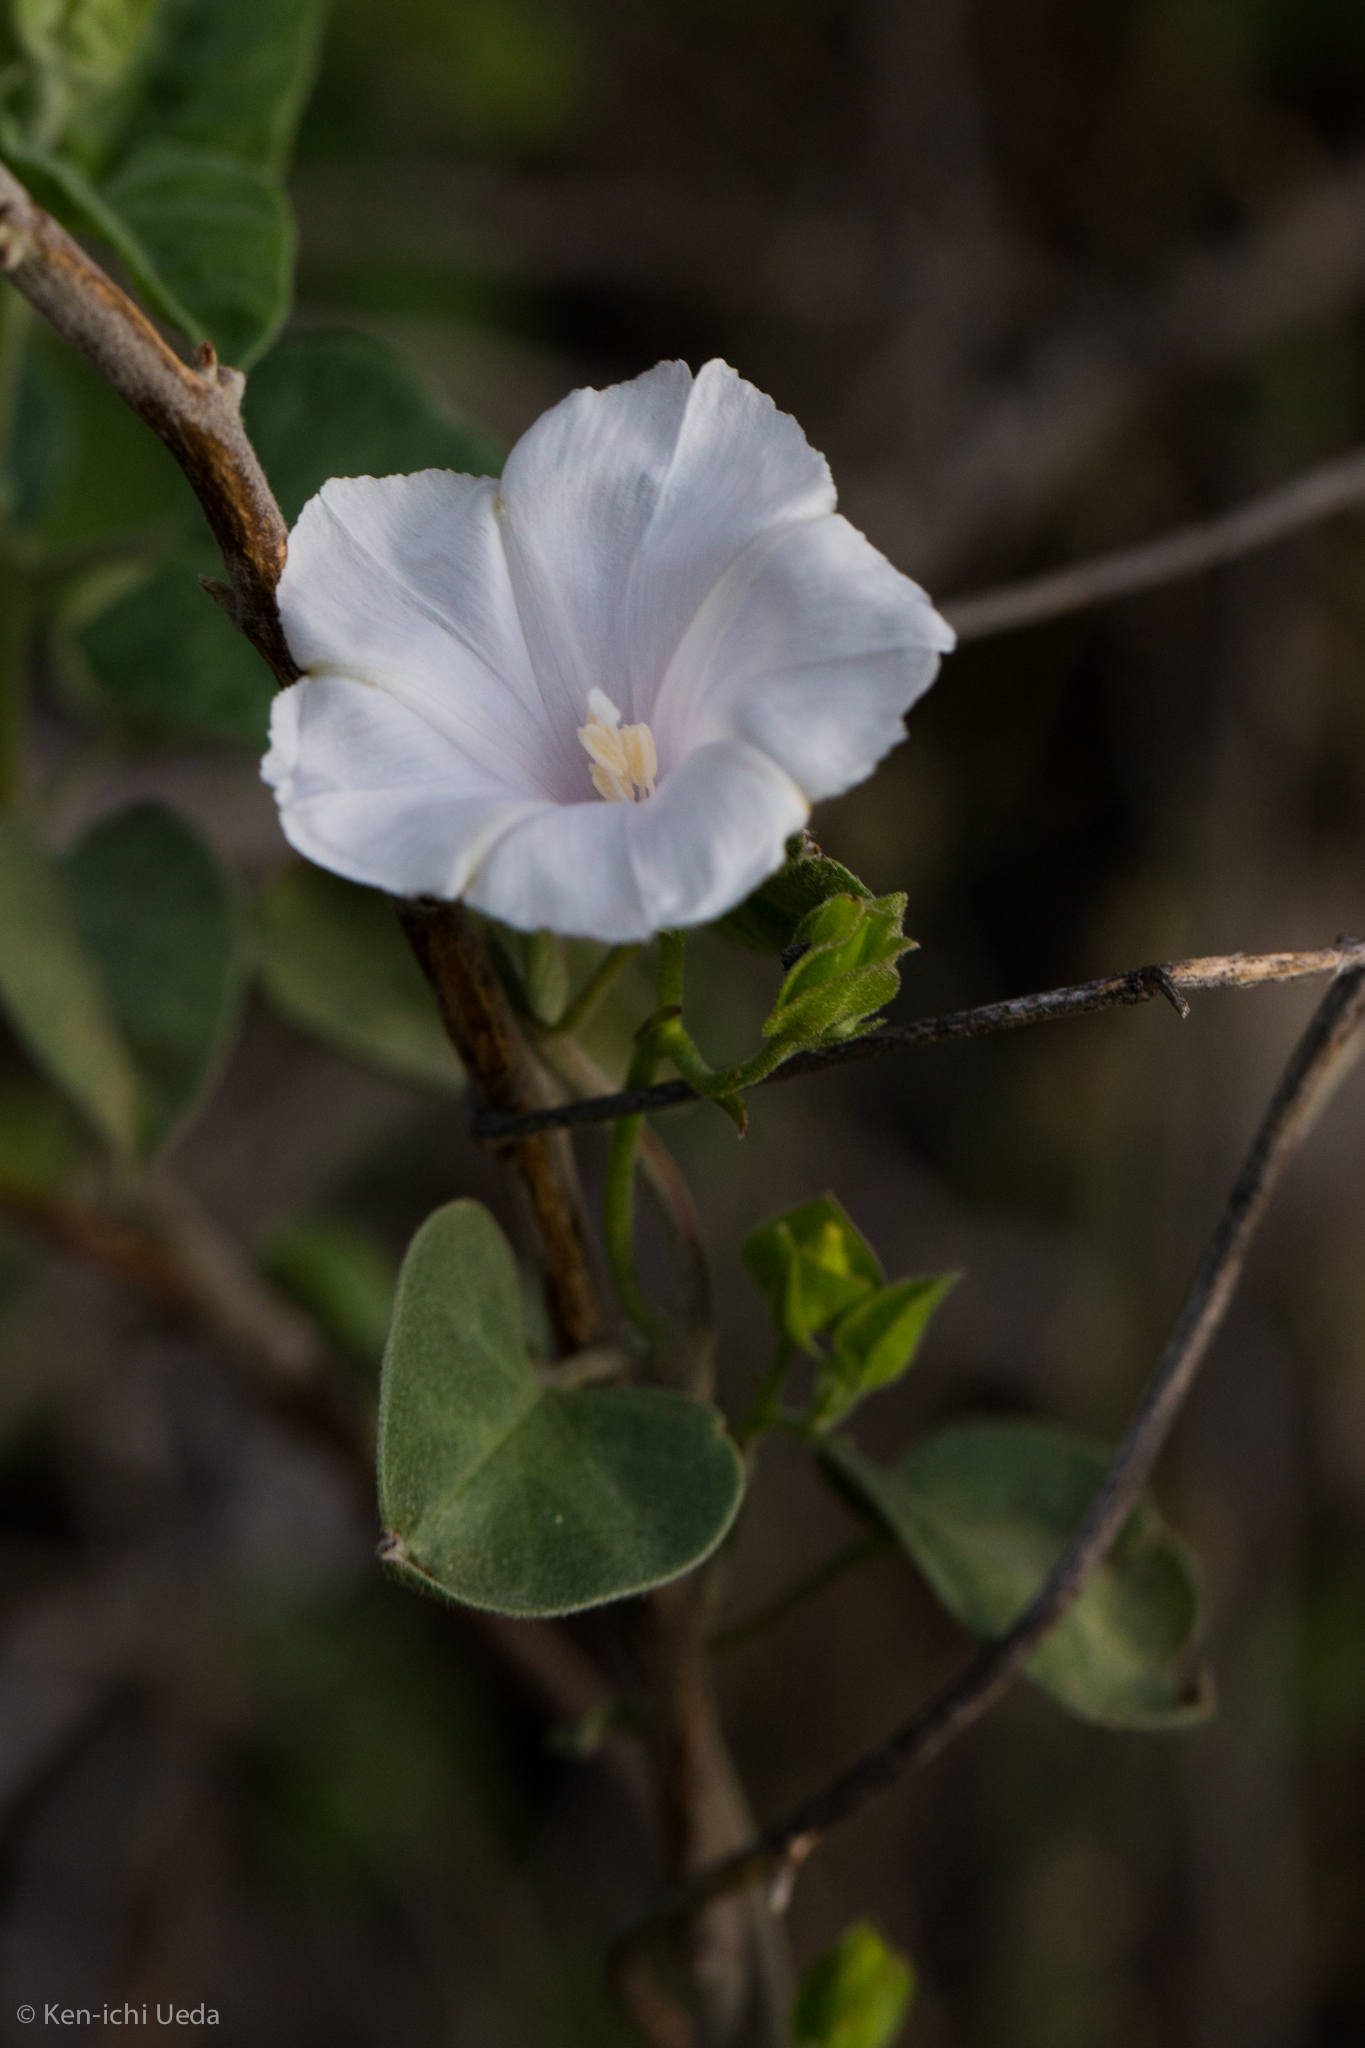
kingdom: Plantae
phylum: Tracheophyta
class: Magnoliopsida
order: Solanales
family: Convolvulaceae
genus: Jacquemontia
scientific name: Jacquemontia pringlei
